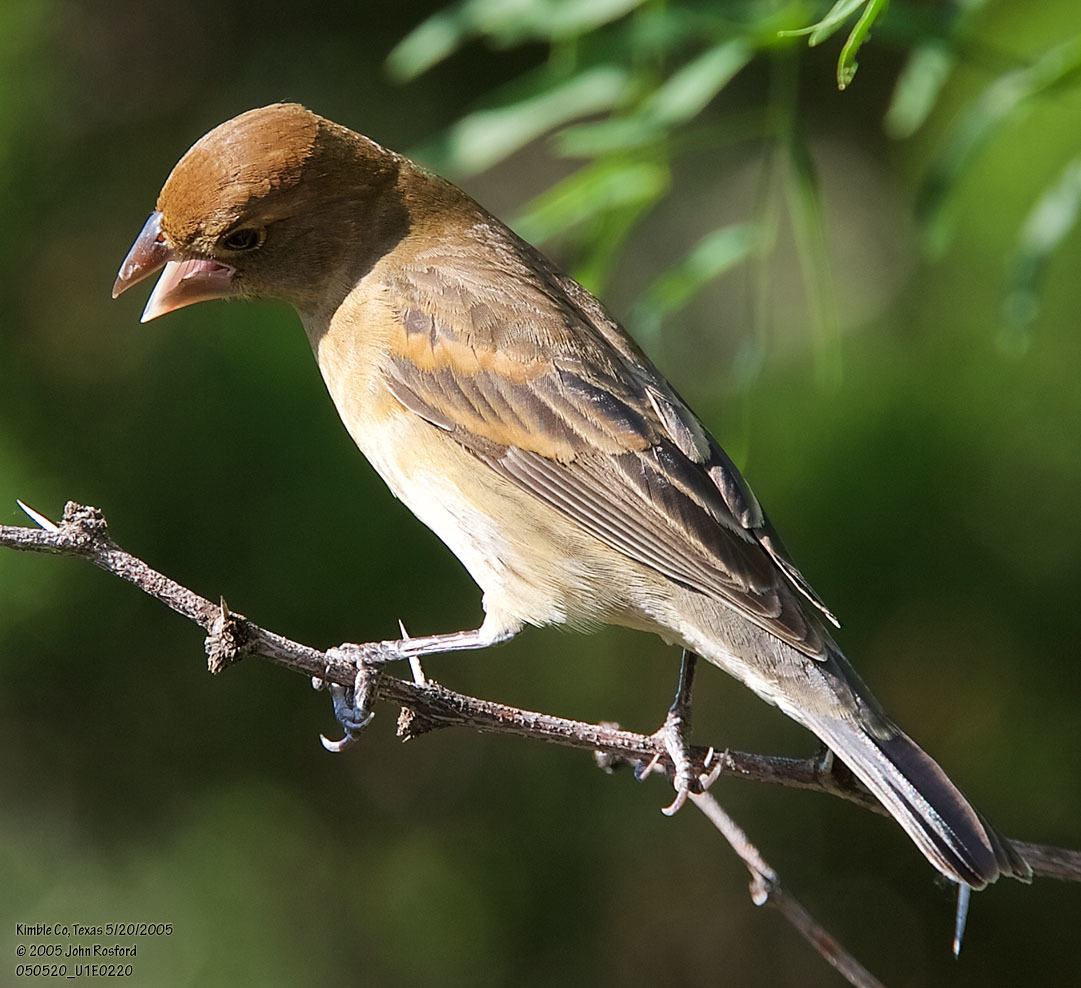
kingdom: Animalia
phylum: Chordata
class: Aves
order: Passeriformes
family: Cardinalidae
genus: Passerina
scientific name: Passerina caerulea
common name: Blue grosbeak
